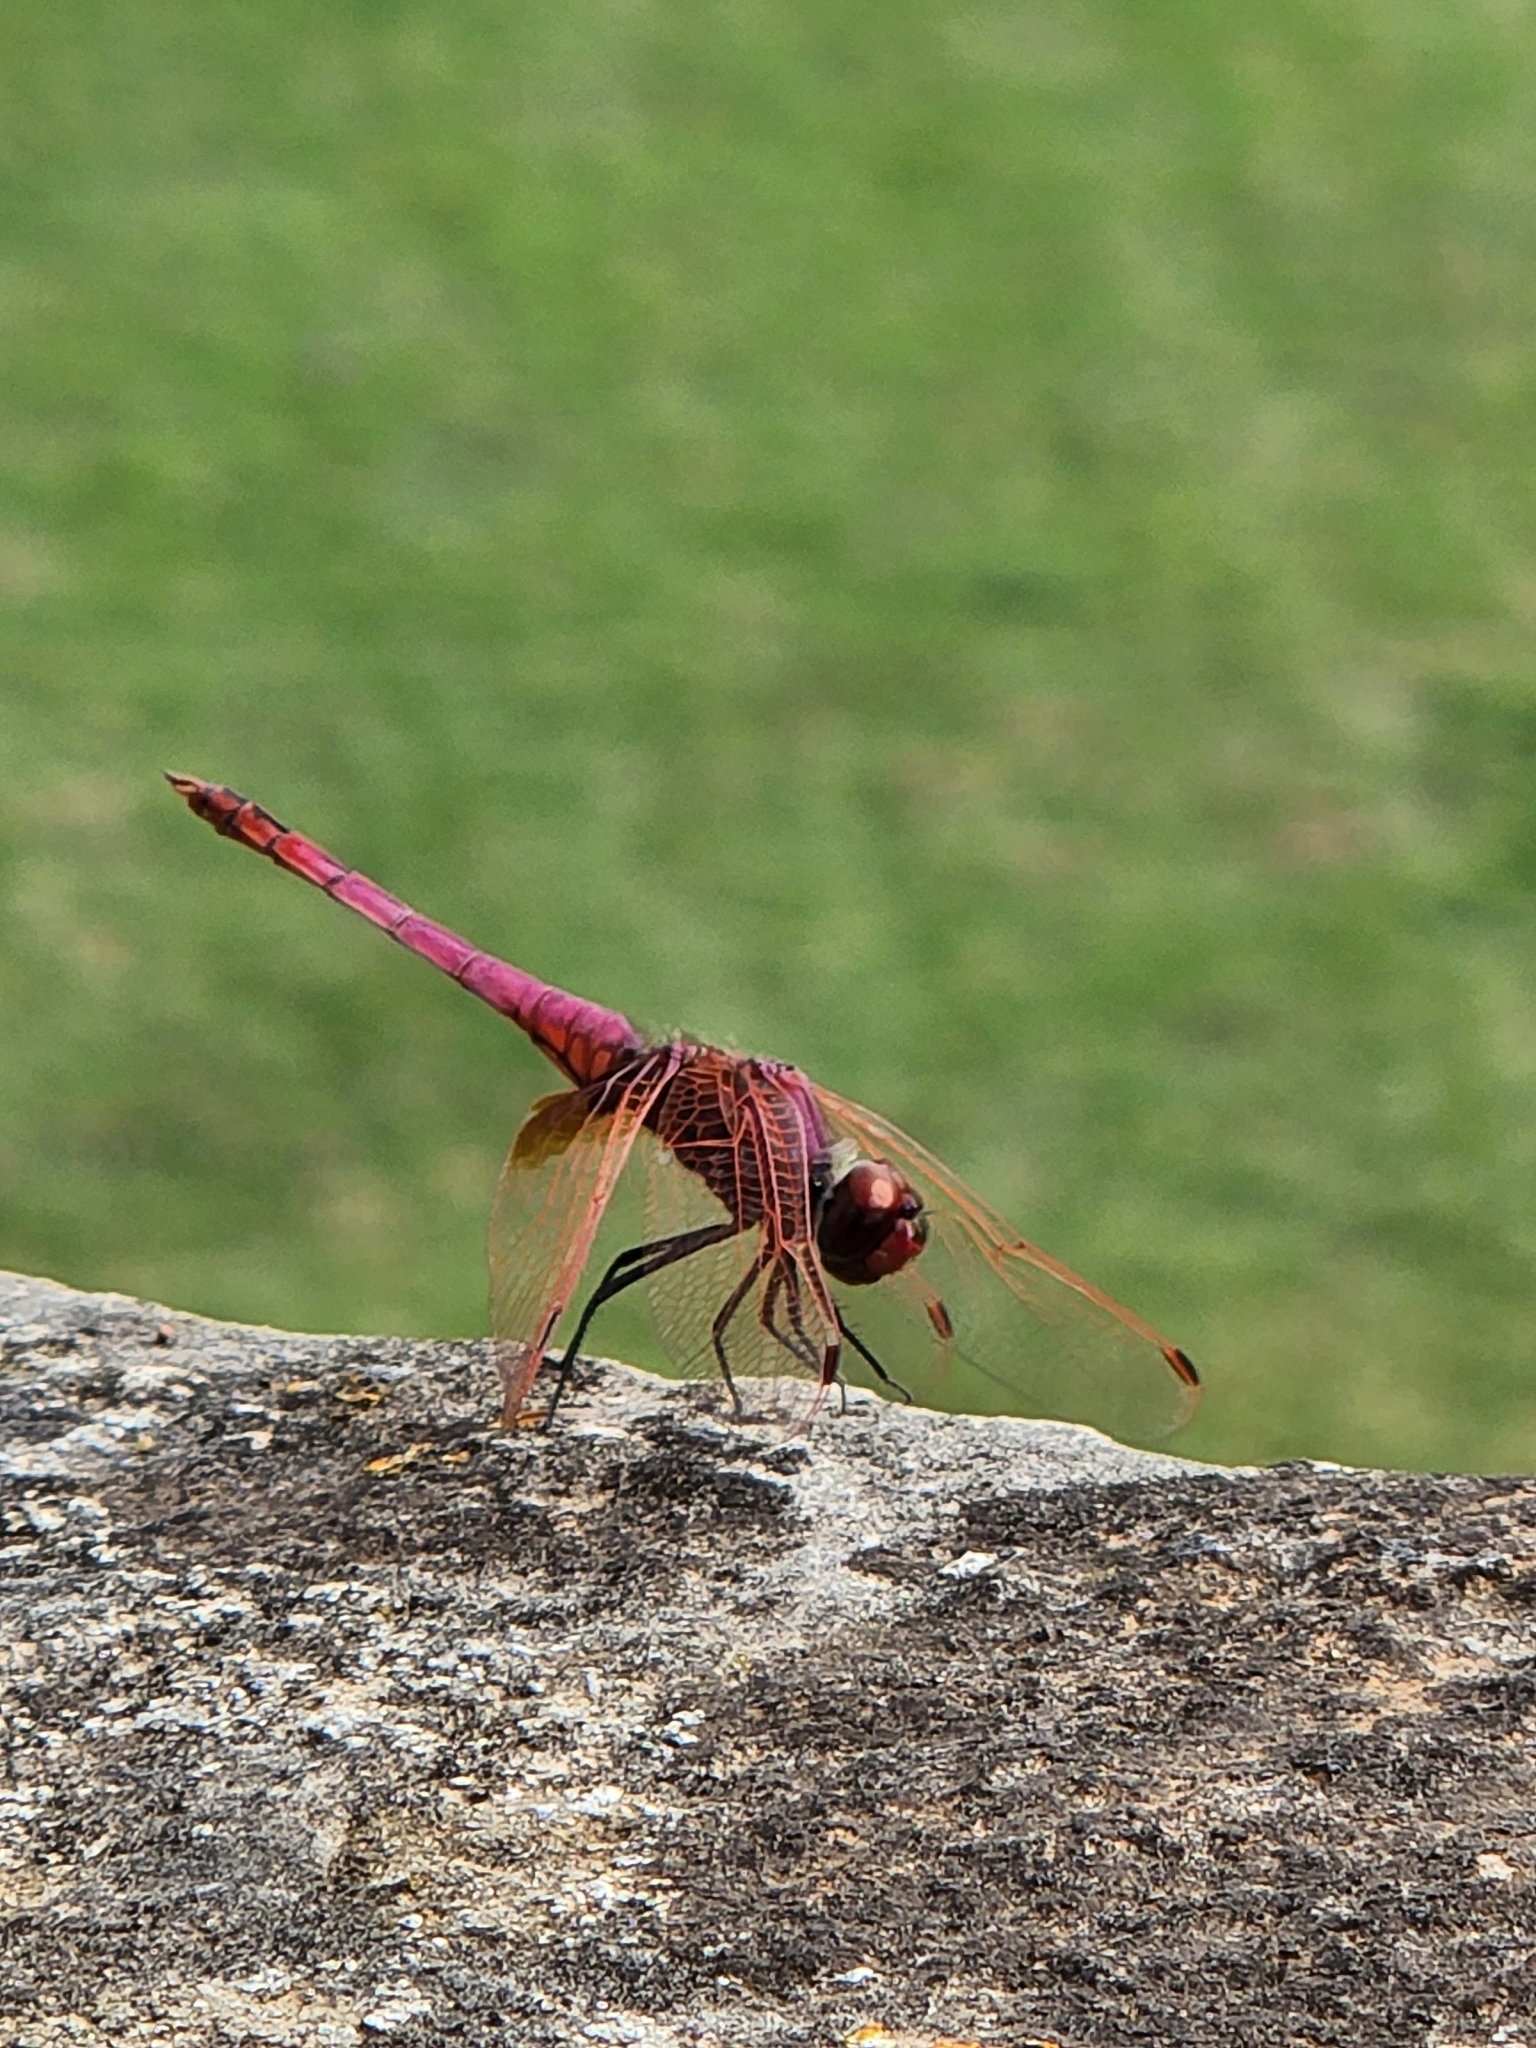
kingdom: Animalia
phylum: Arthropoda
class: Insecta
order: Odonata
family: Libellulidae
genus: Trithemis
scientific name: Trithemis annulata
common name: Violet dropwing
